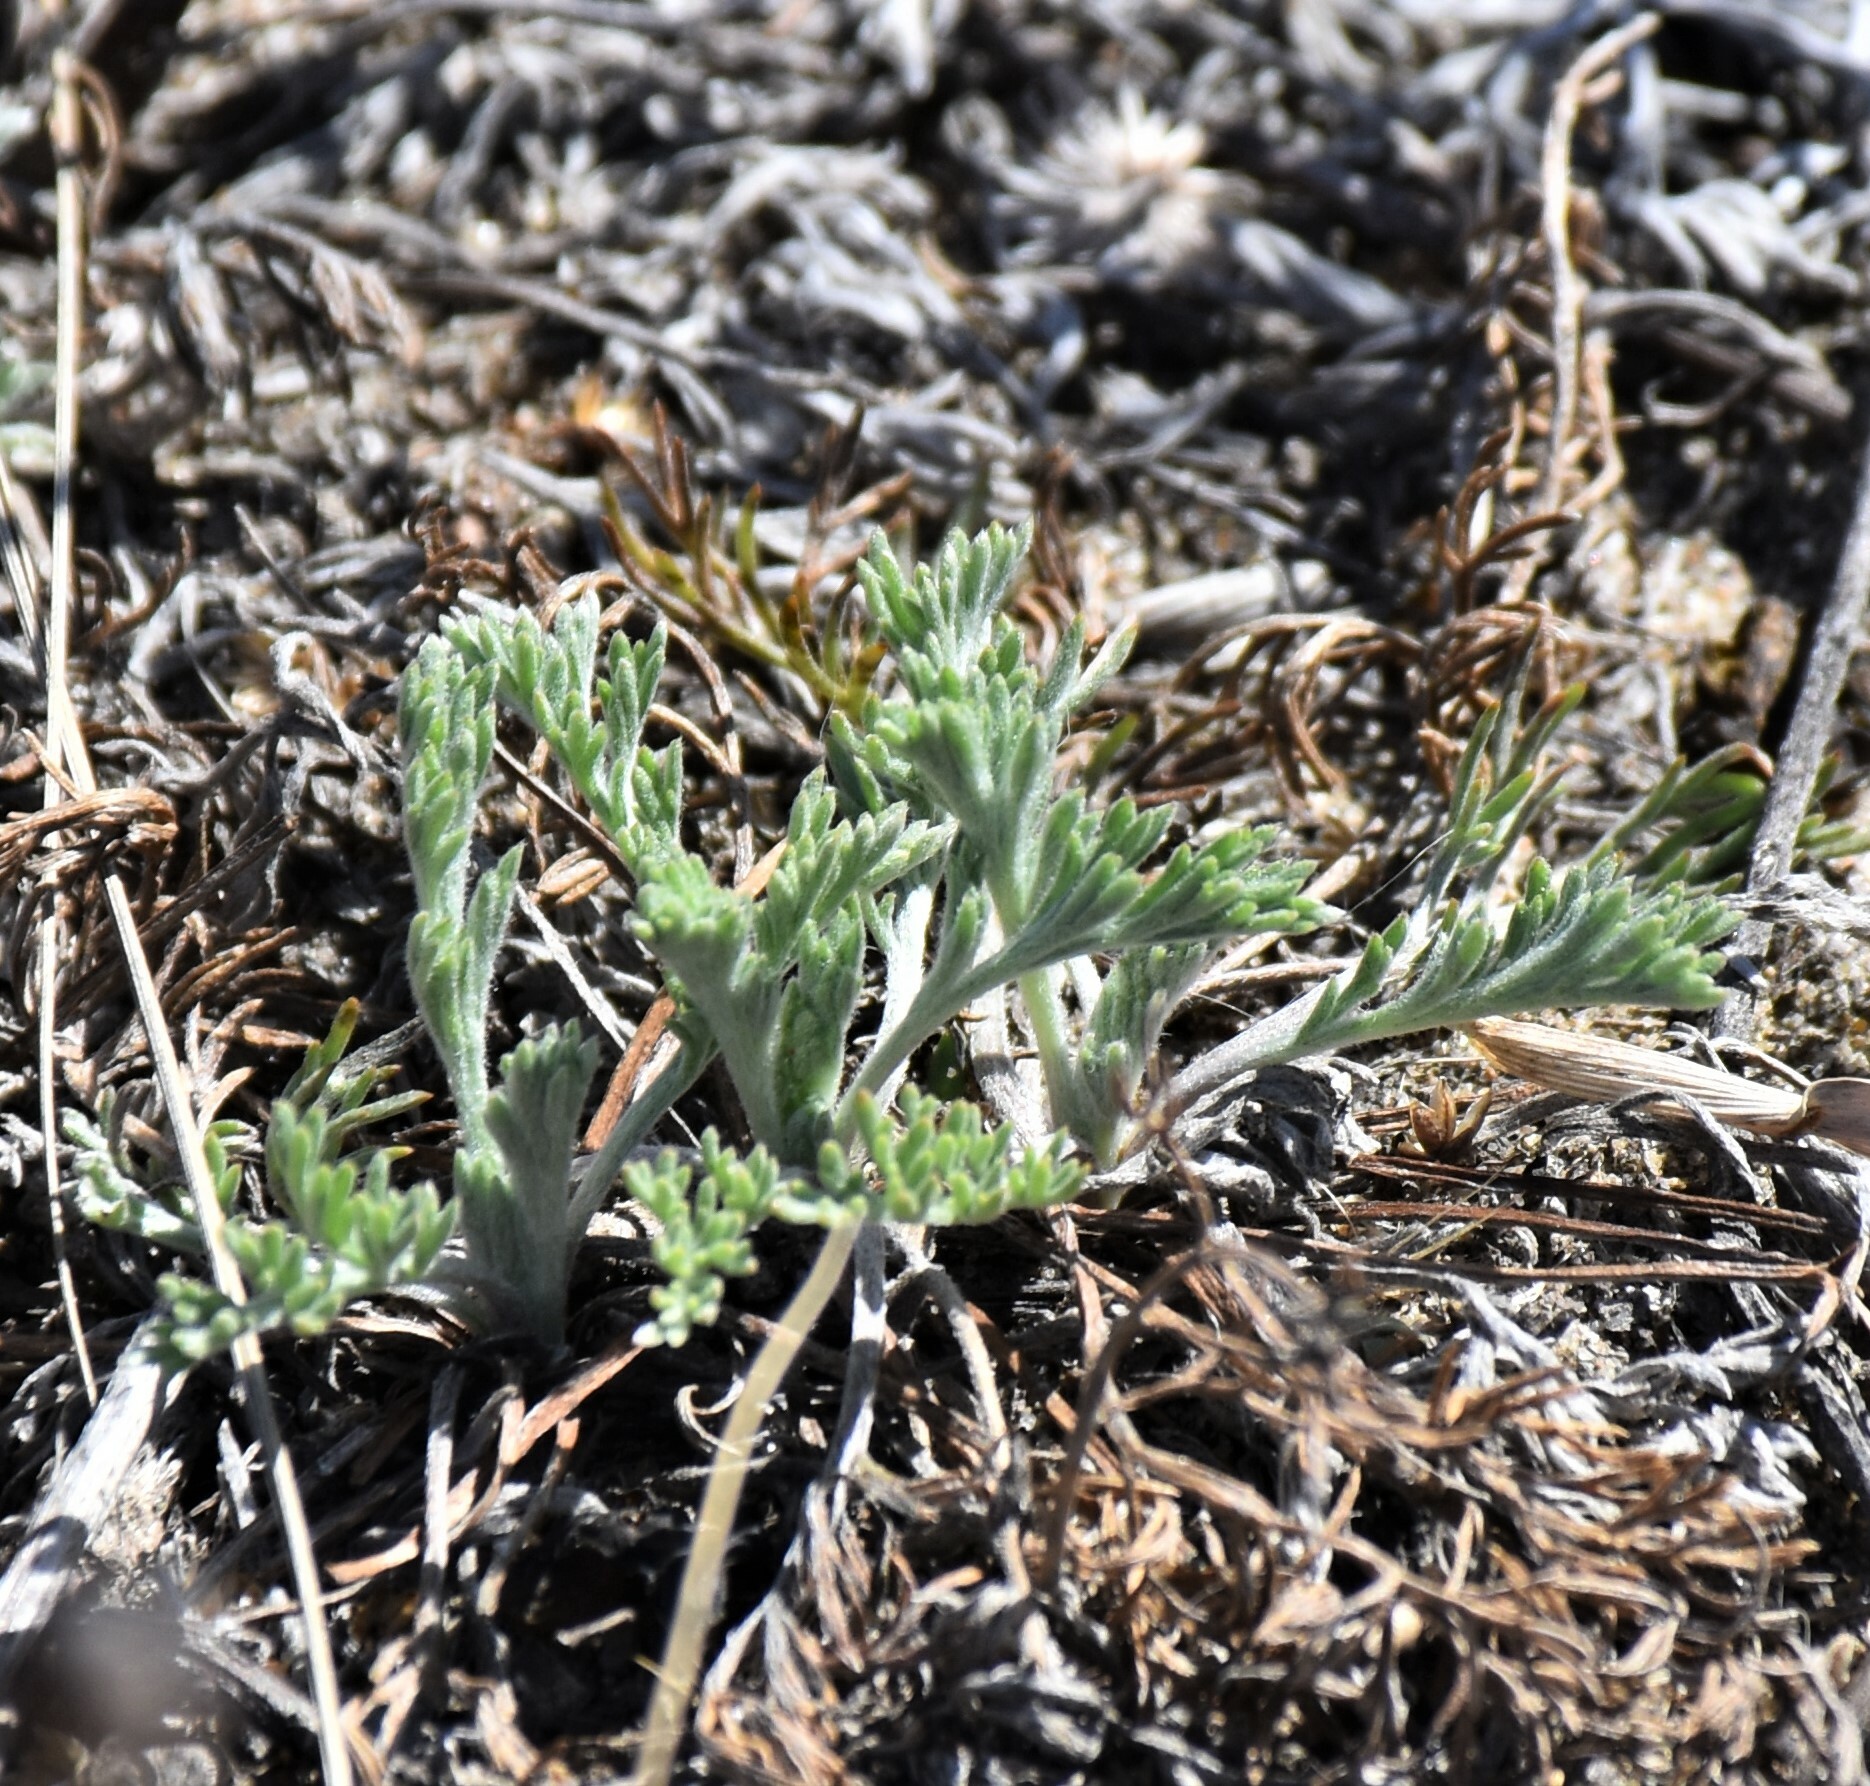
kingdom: Plantae
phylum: Tracheophyta
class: Magnoliopsida
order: Asterales
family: Asteraceae
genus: Artemisia
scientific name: Artemisia campestris
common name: Field wormwood
